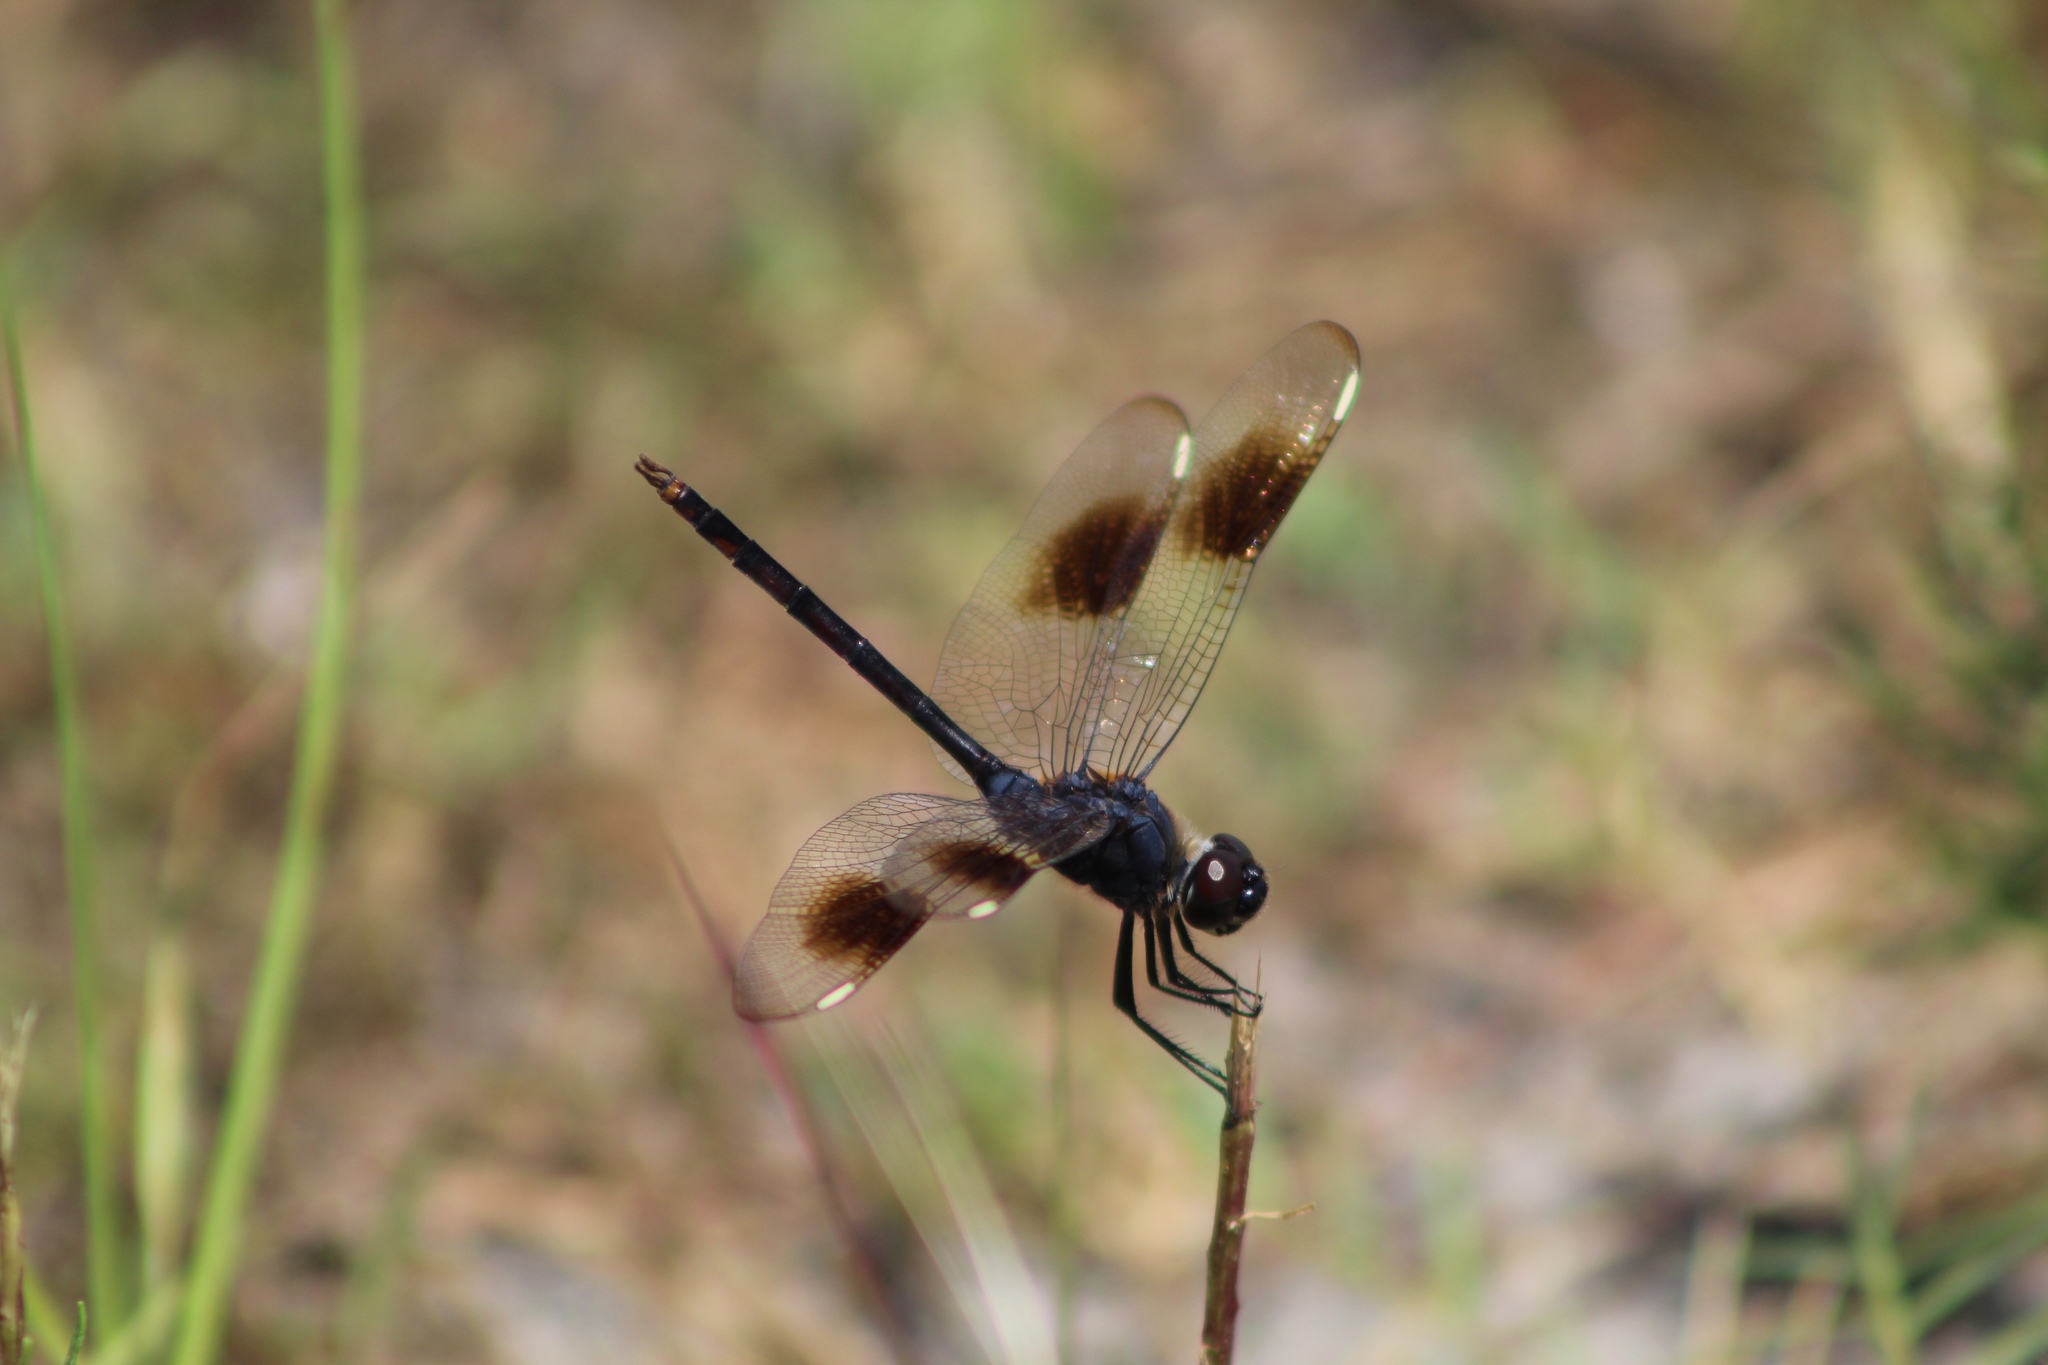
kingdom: Animalia
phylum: Arthropoda
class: Insecta
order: Odonata
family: Libellulidae
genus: Brachymesia
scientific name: Brachymesia gravida
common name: Four-spotted pennant
